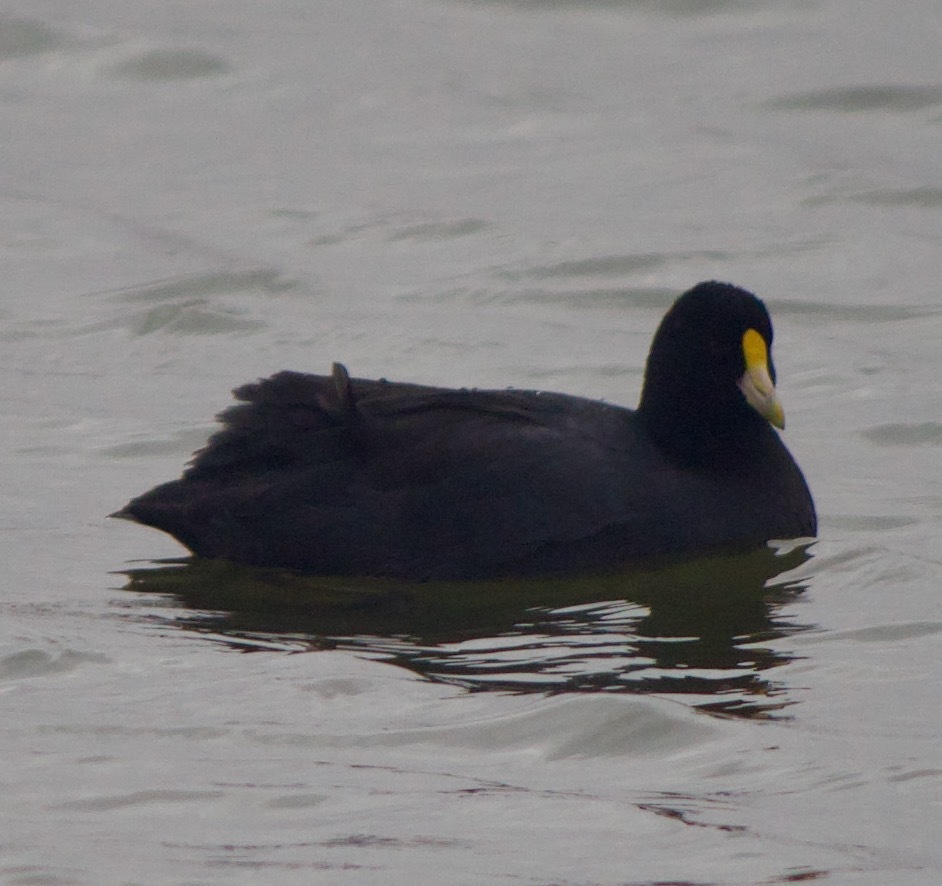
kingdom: Animalia
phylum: Chordata
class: Aves
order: Gruiformes
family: Rallidae
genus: Fulica
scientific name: Fulica leucoptera
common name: White-winged coot
